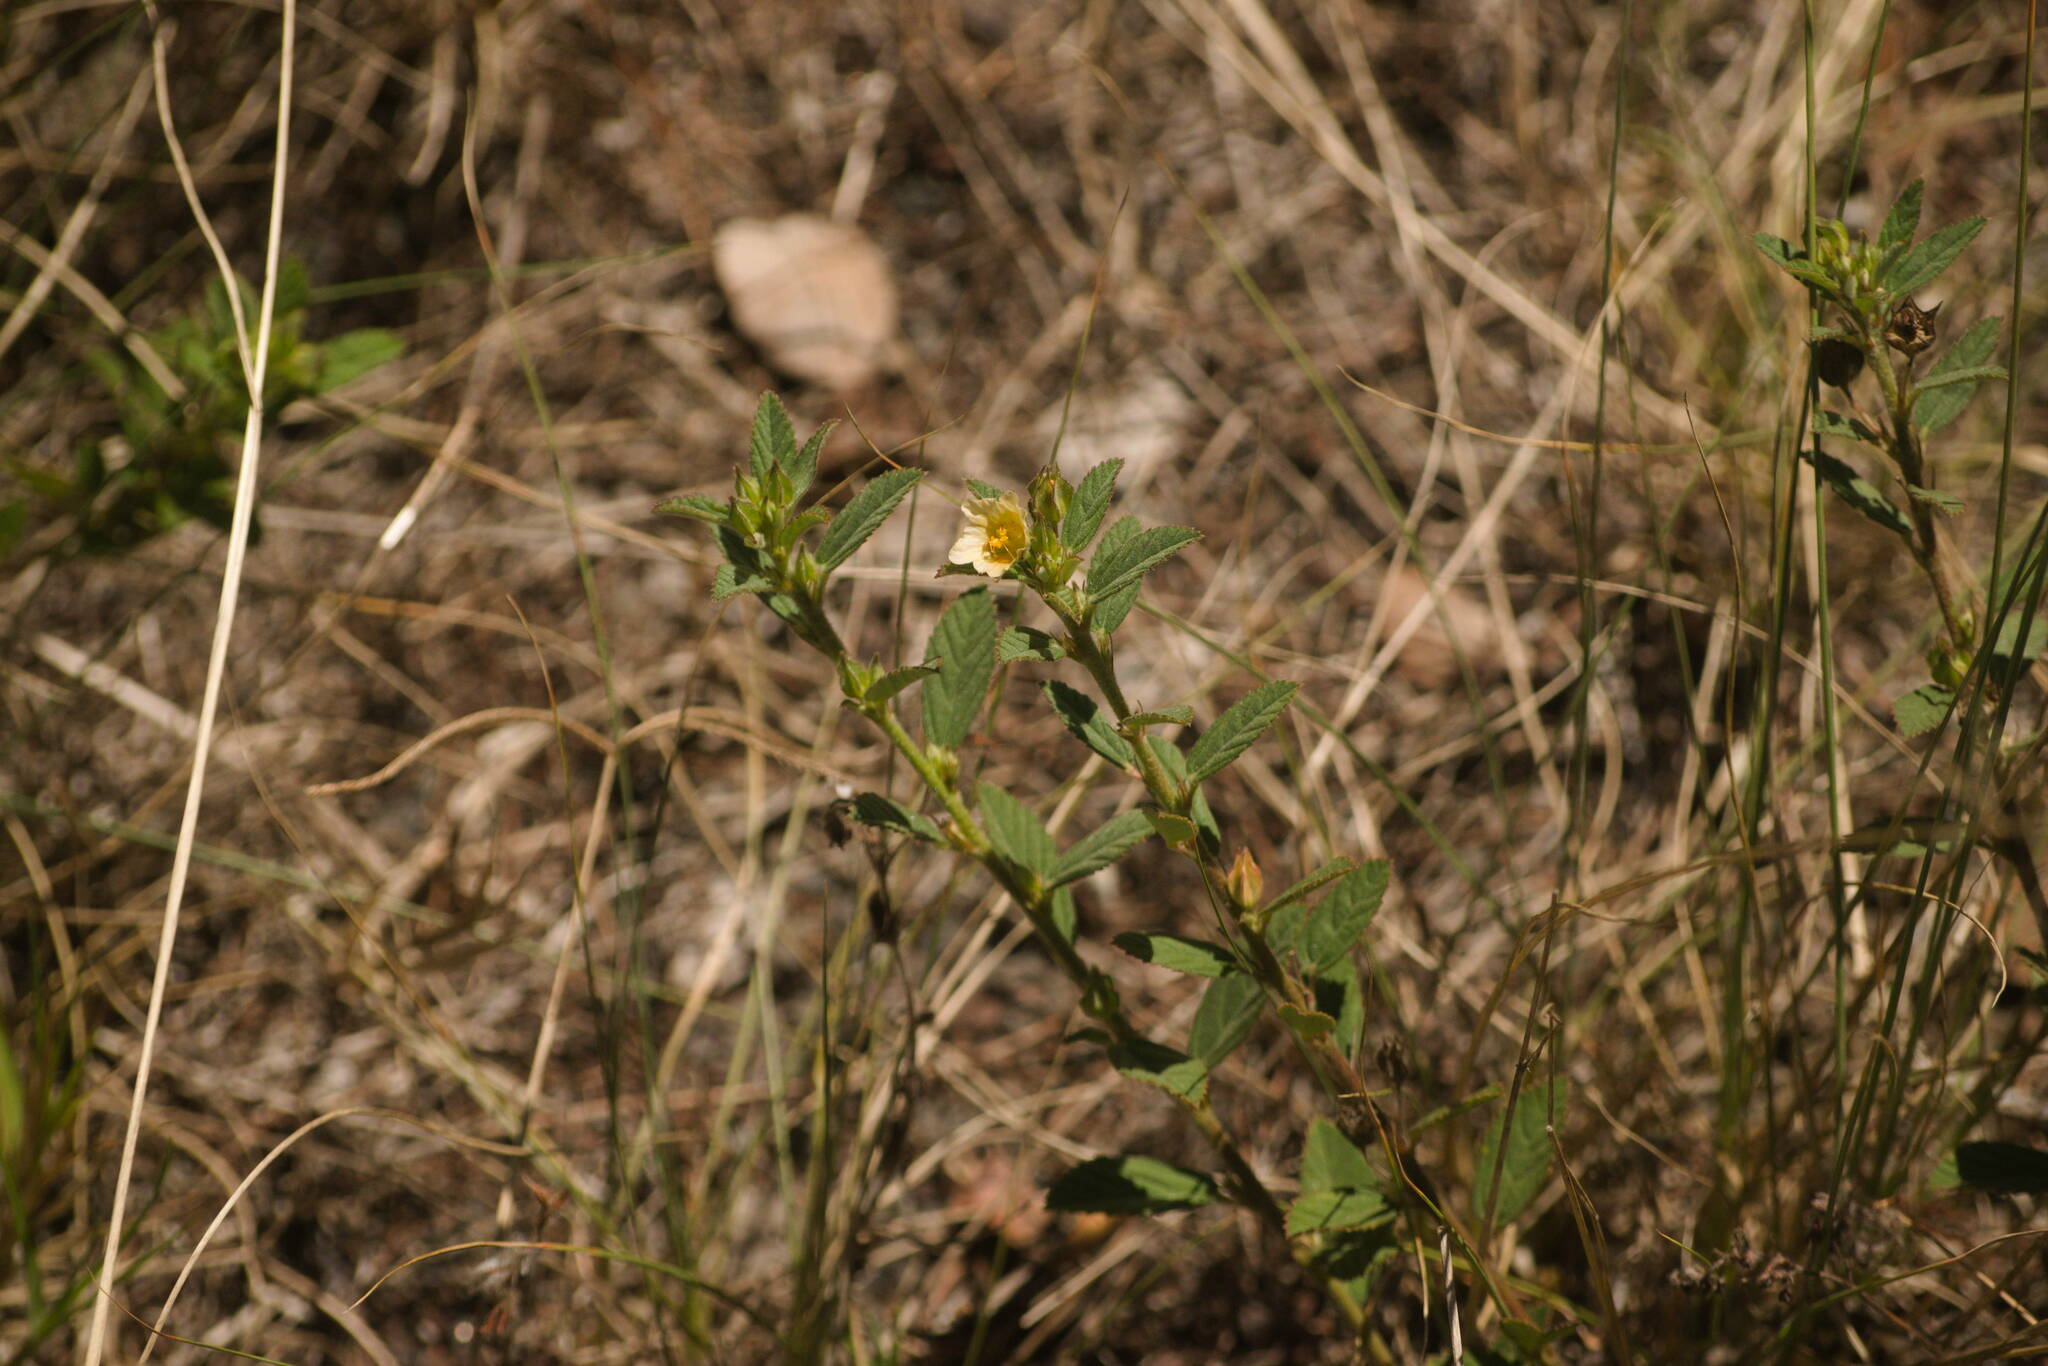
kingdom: Plantae
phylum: Tracheophyta
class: Magnoliopsida
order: Malvales
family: Malvaceae
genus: Sida
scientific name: Sida rhombifolia
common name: Queensland-hemp
